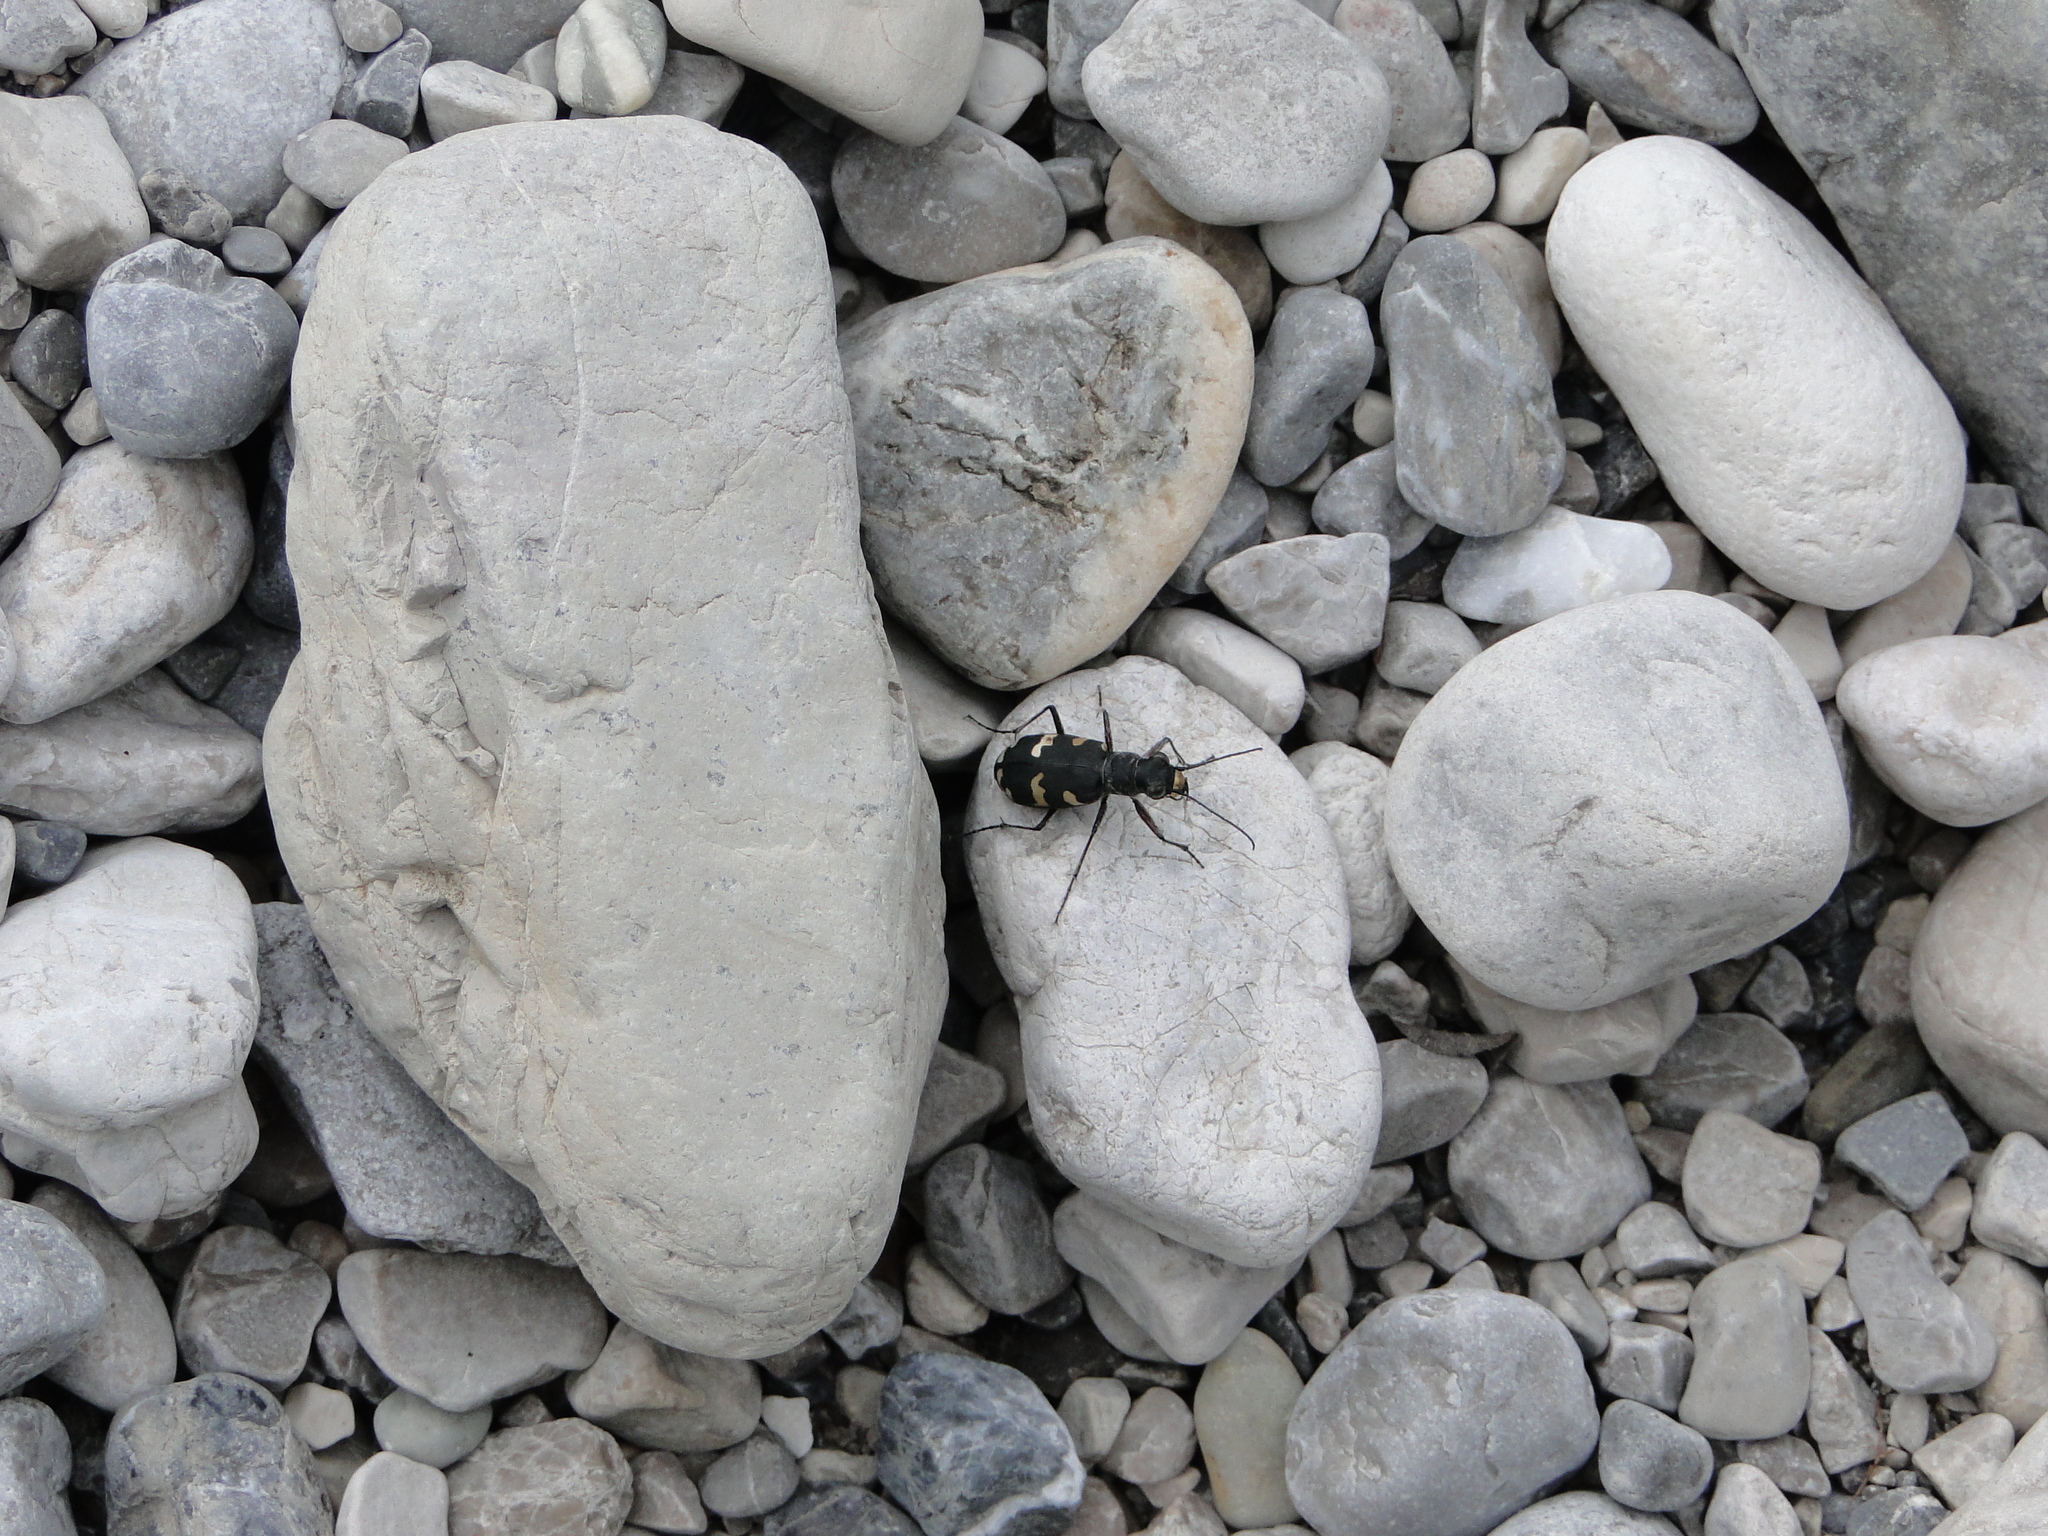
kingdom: Animalia
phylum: Arthropoda
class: Insecta
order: Coleoptera
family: Carabidae
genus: Cicindela
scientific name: Cicindela hybrida
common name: Northern dune tiger beetle
